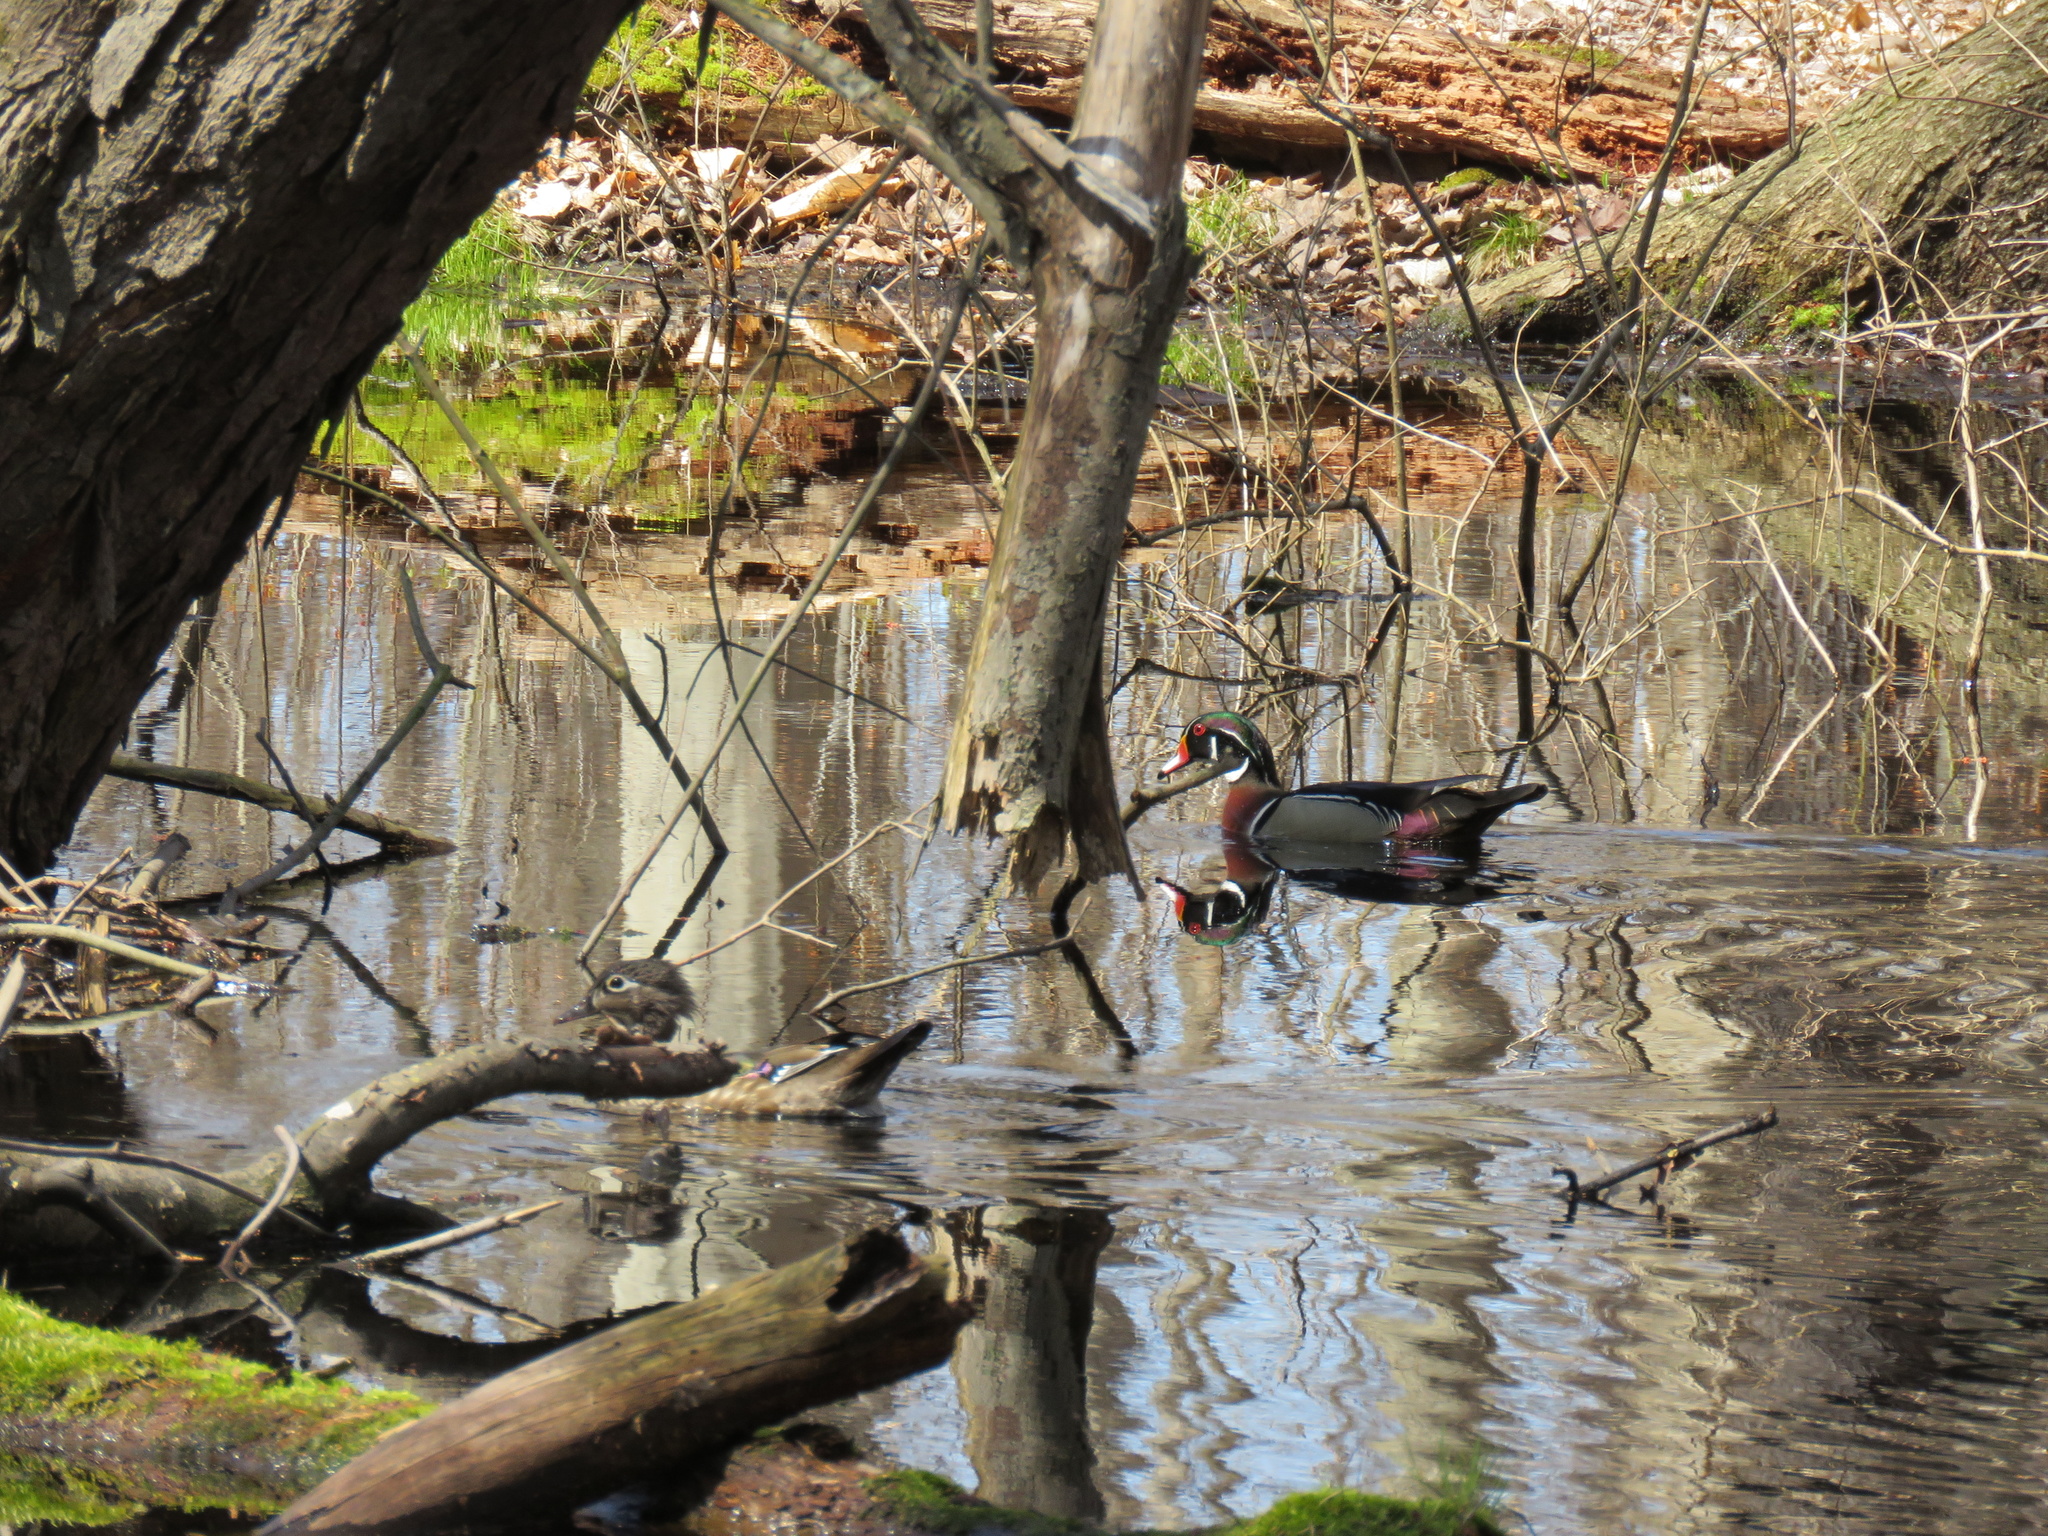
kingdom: Animalia
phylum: Chordata
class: Aves
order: Anseriformes
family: Anatidae
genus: Aix
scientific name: Aix sponsa
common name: Wood duck
